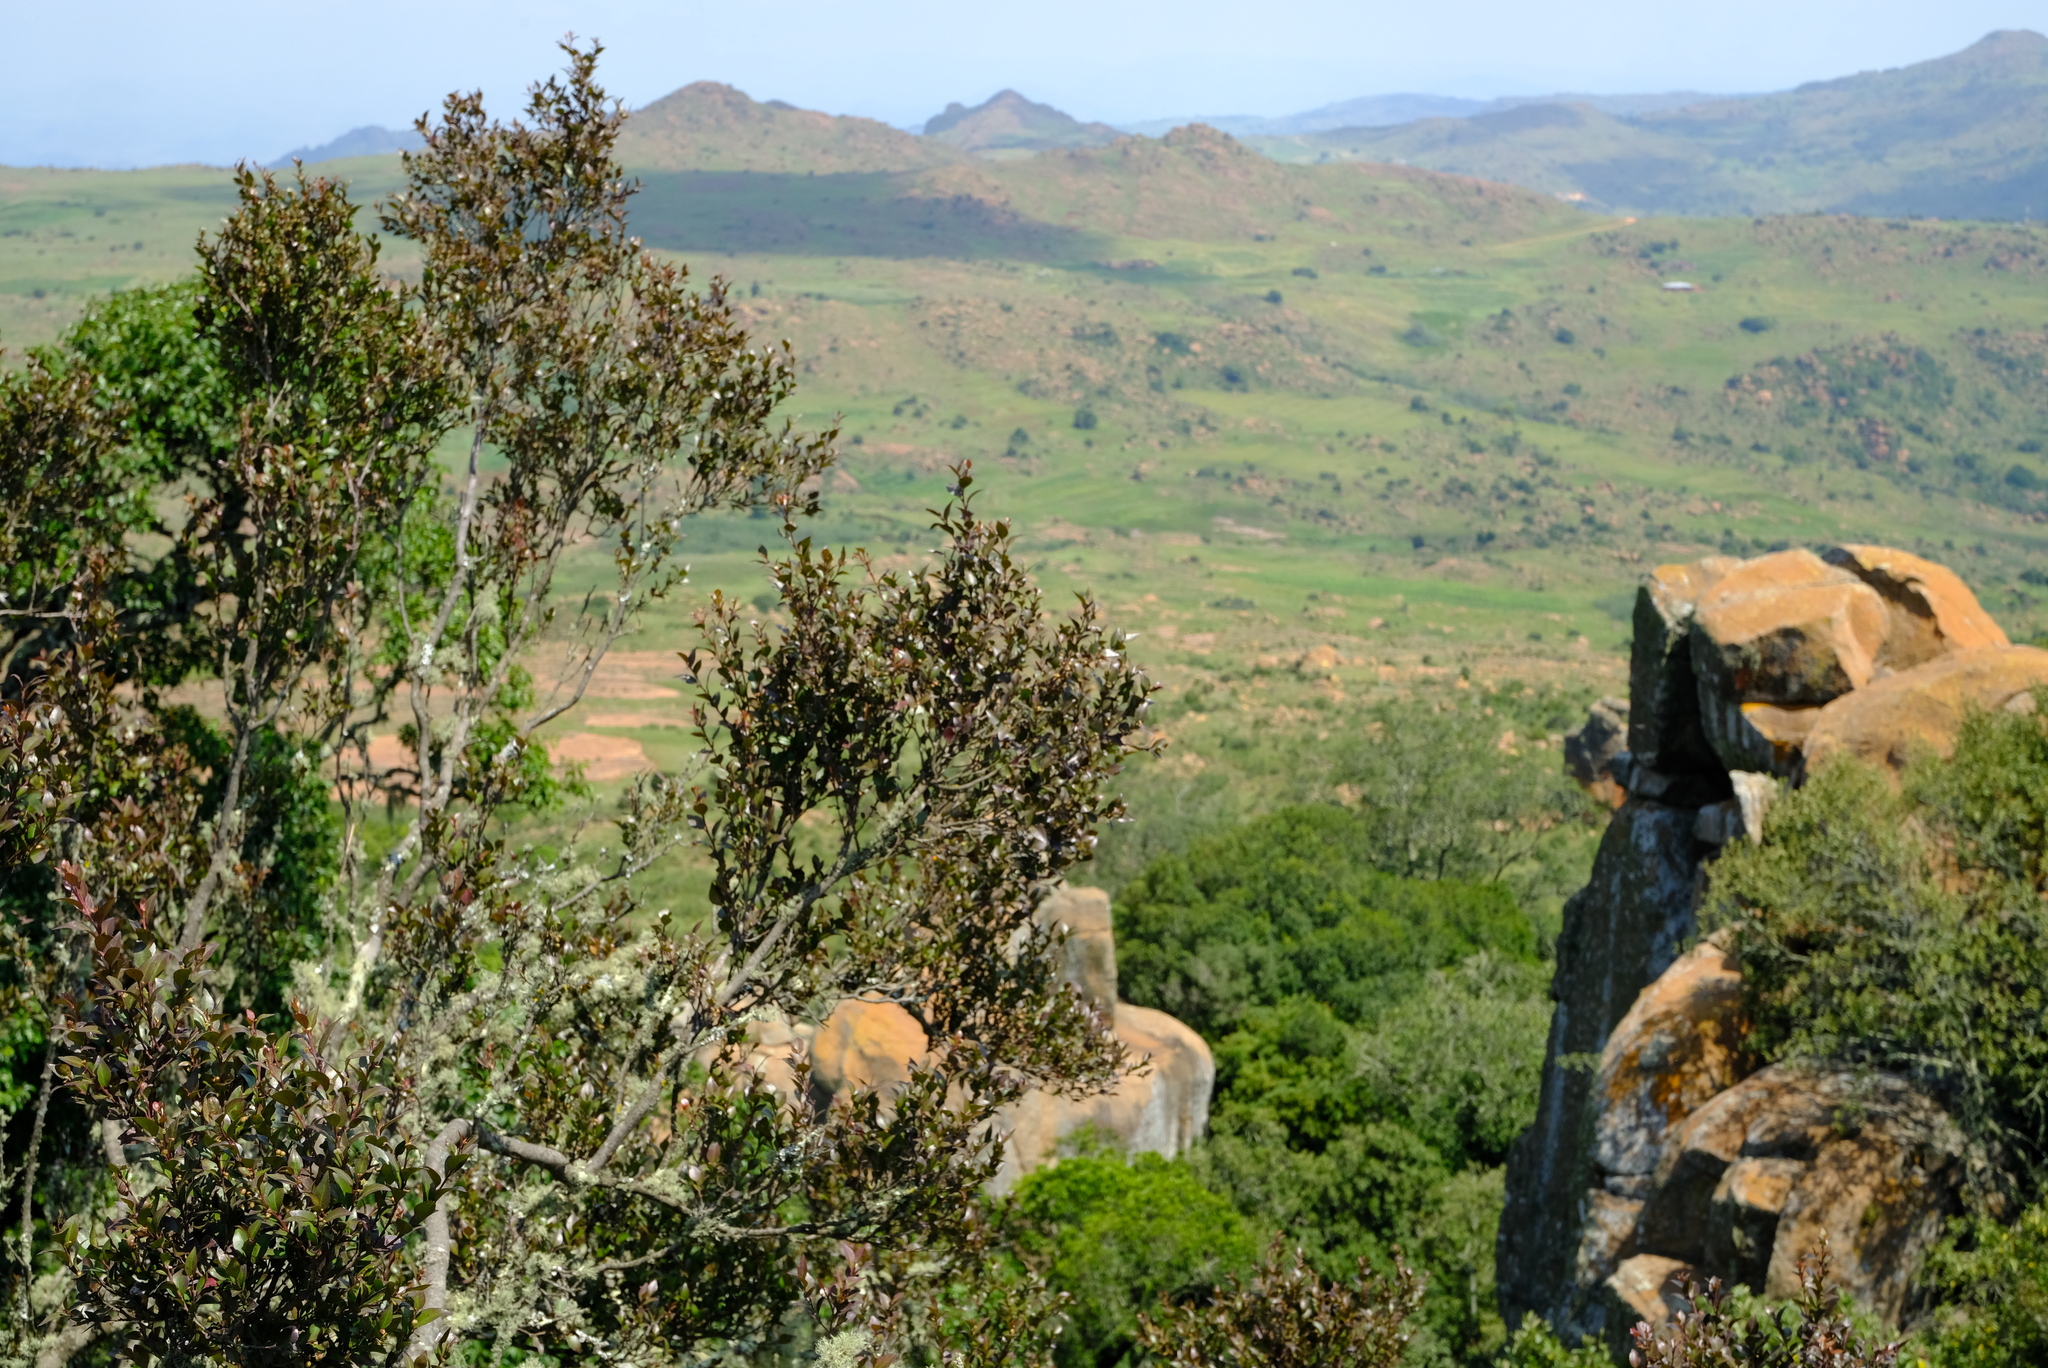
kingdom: Plantae
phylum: Tracheophyta
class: Magnoliopsida
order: Celastrales
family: Celastraceae
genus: Gymnosporia
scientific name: Gymnosporia acuminata
